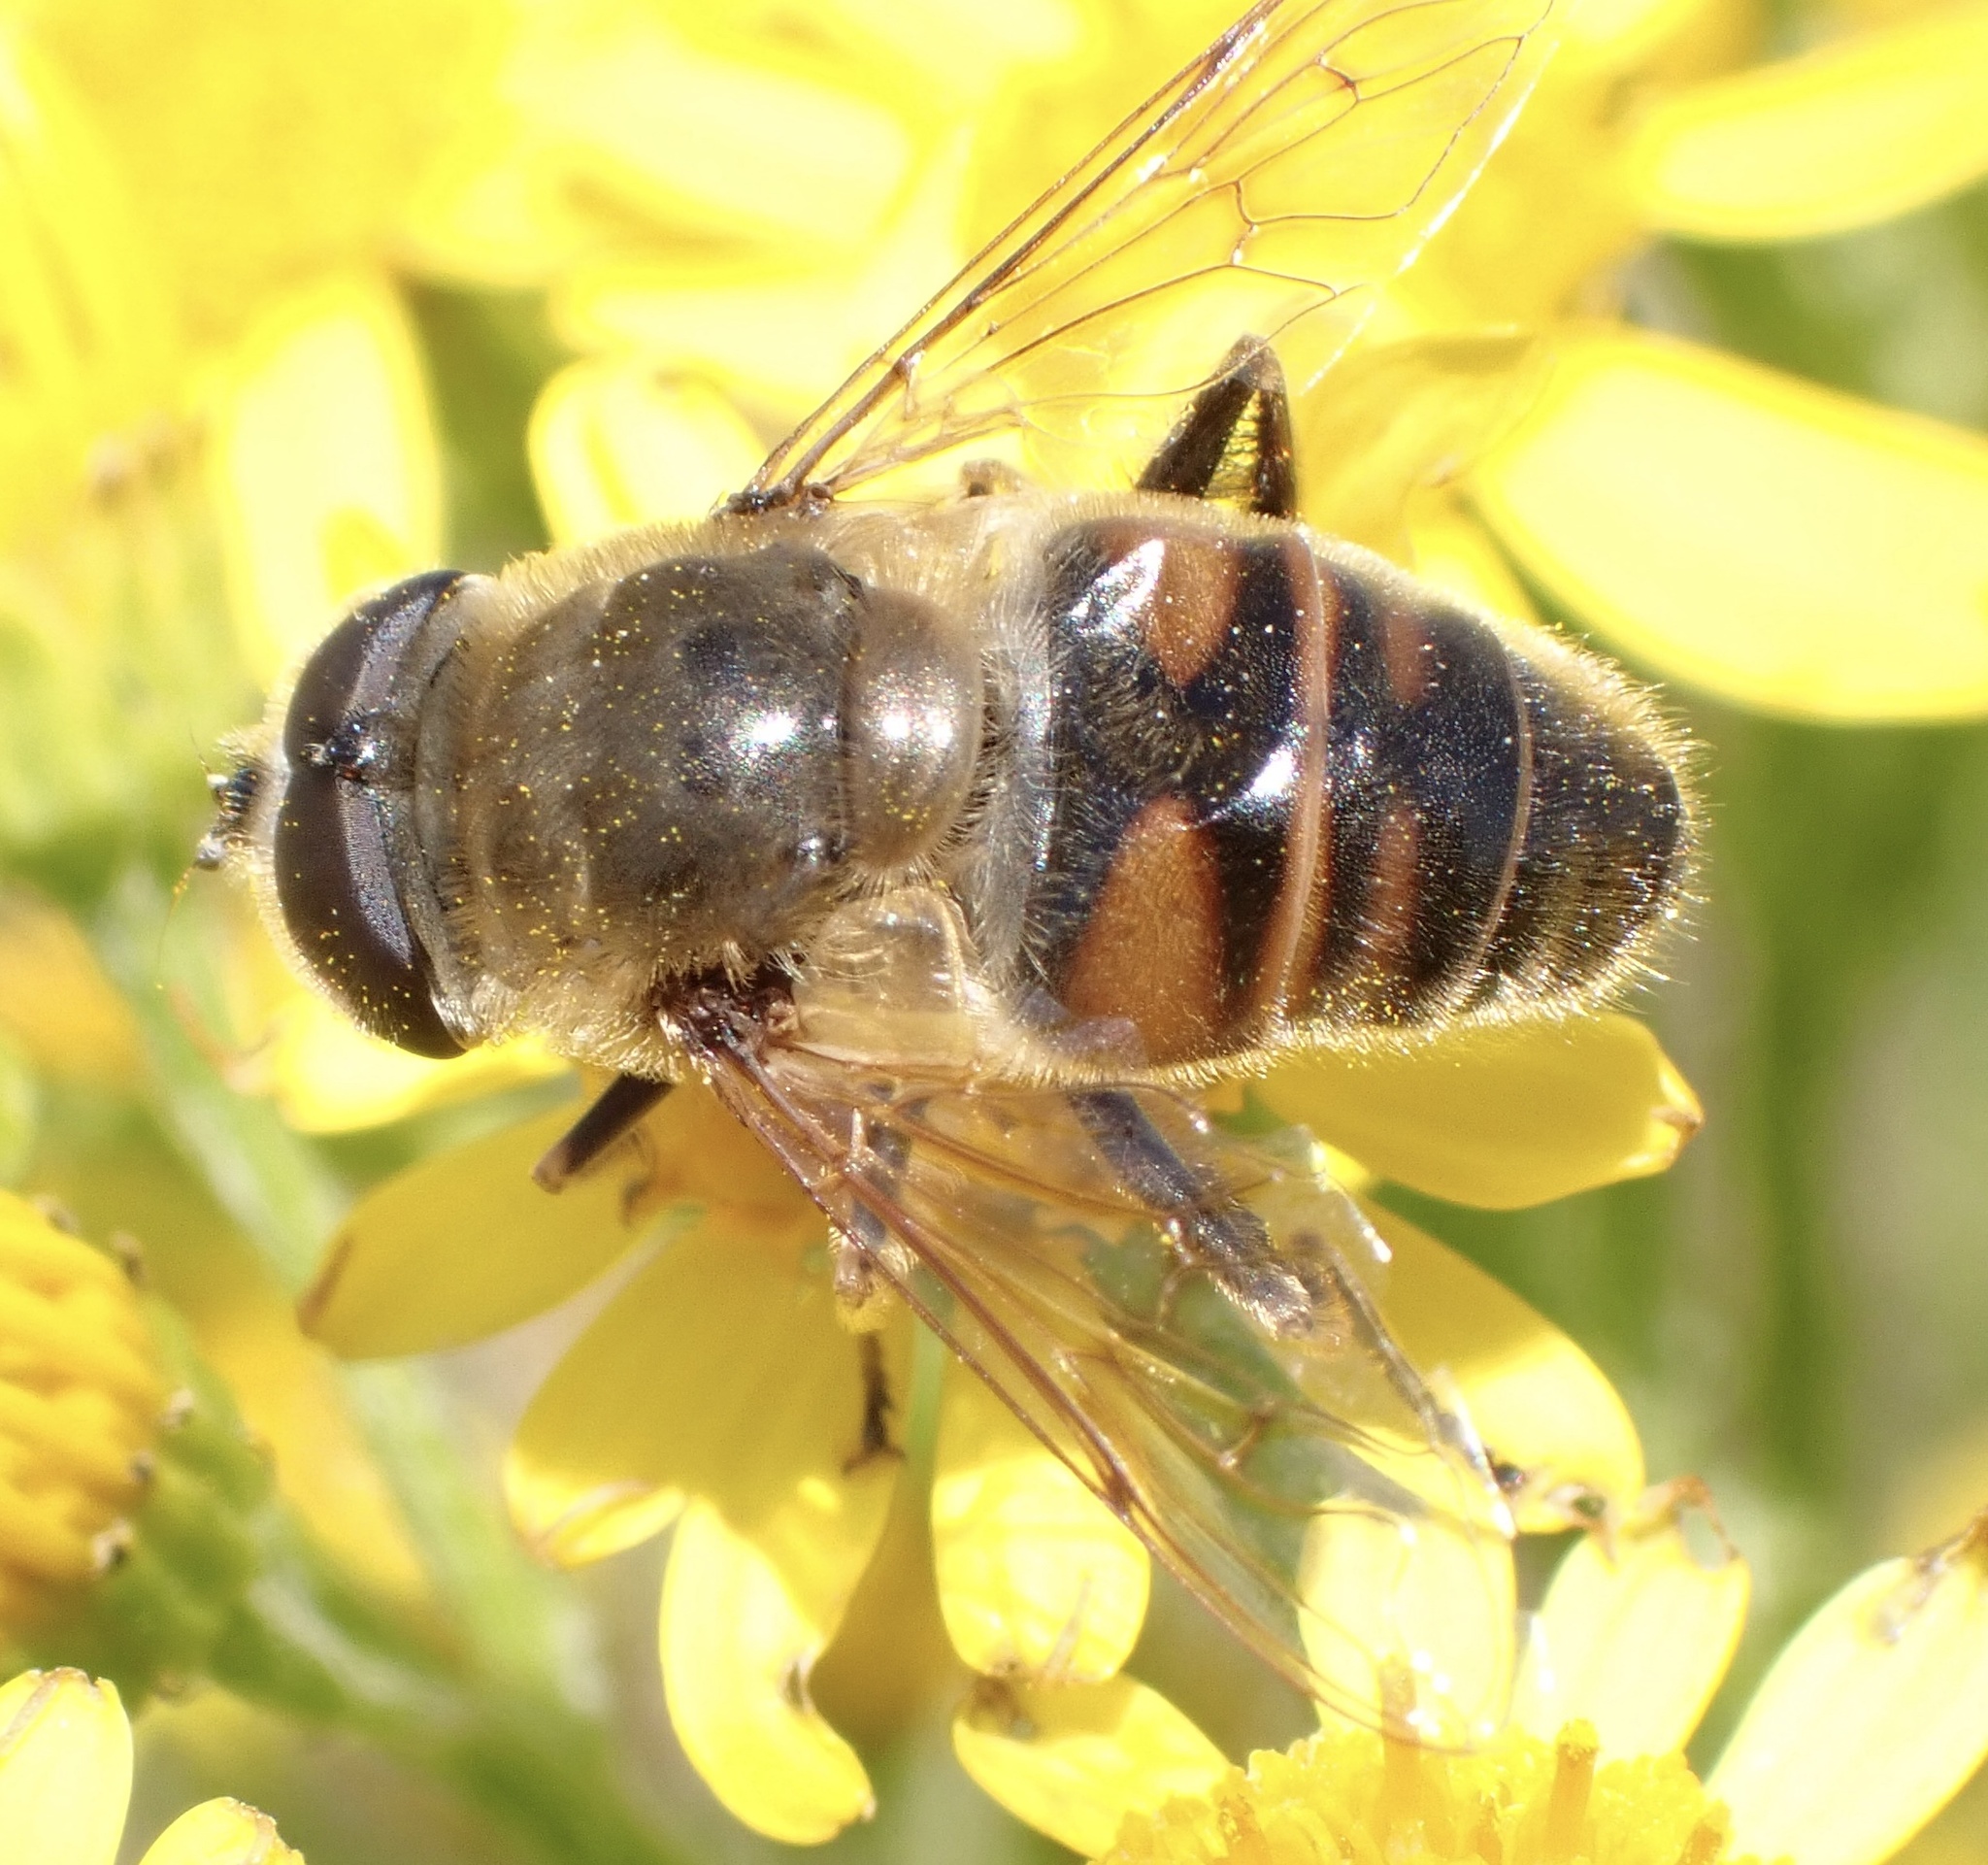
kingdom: Animalia
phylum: Arthropoda
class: Insecta
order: Diptera
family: Syrphidae
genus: Eristalis
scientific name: Eristalis tenax
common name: Drone fly
